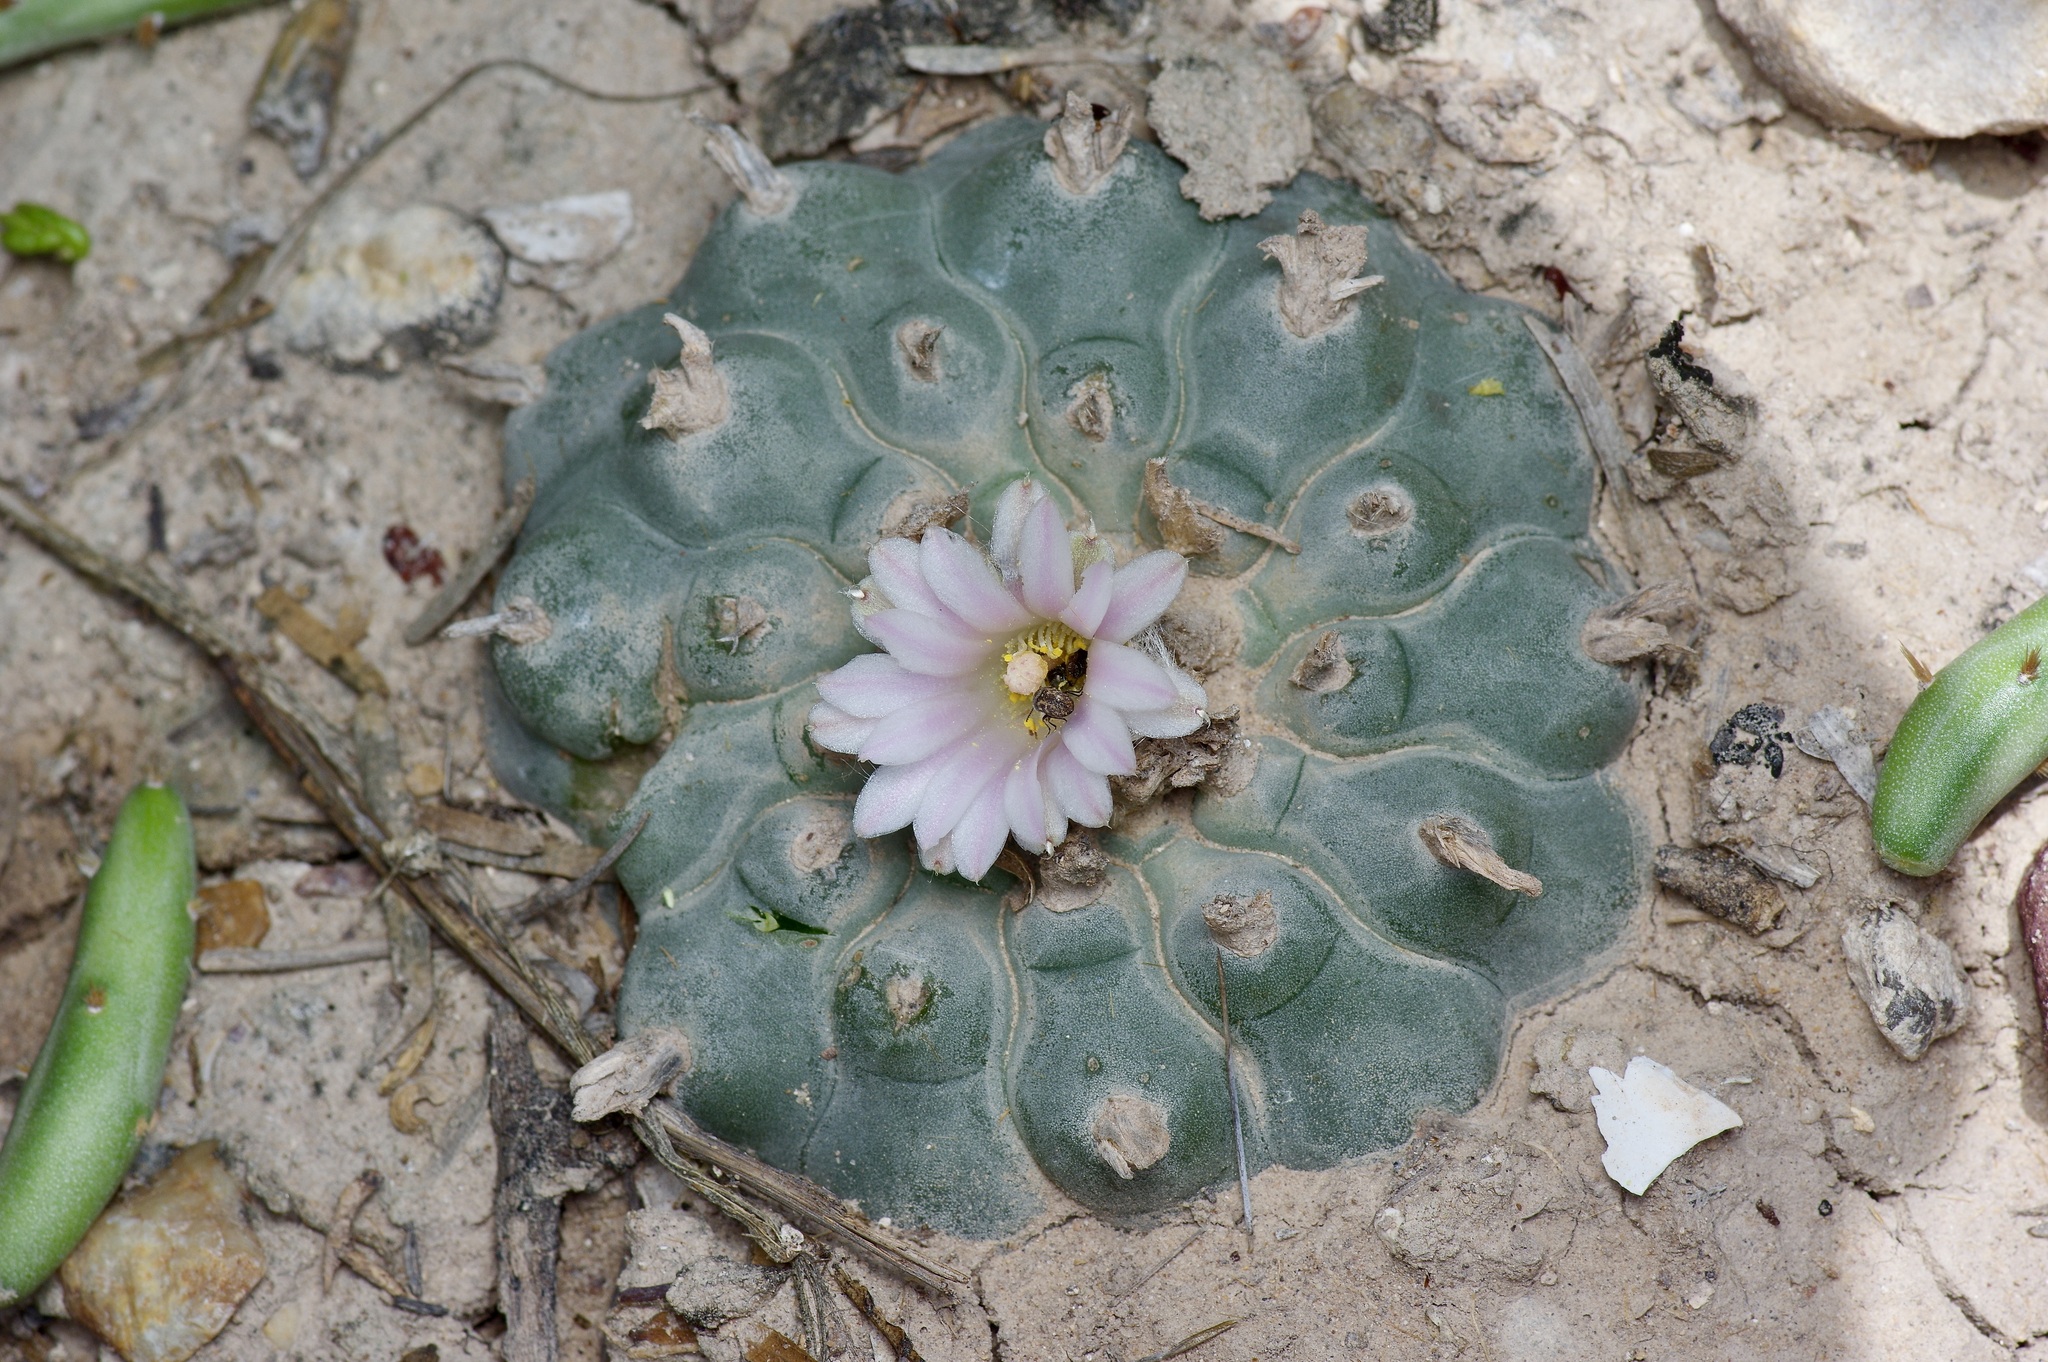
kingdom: Plantae
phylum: Tracheophyta
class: Magnoliopsida
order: Caryophyllales
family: Cactaceae
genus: Lophophora
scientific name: Lophophora williamsii
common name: Indian-dope
